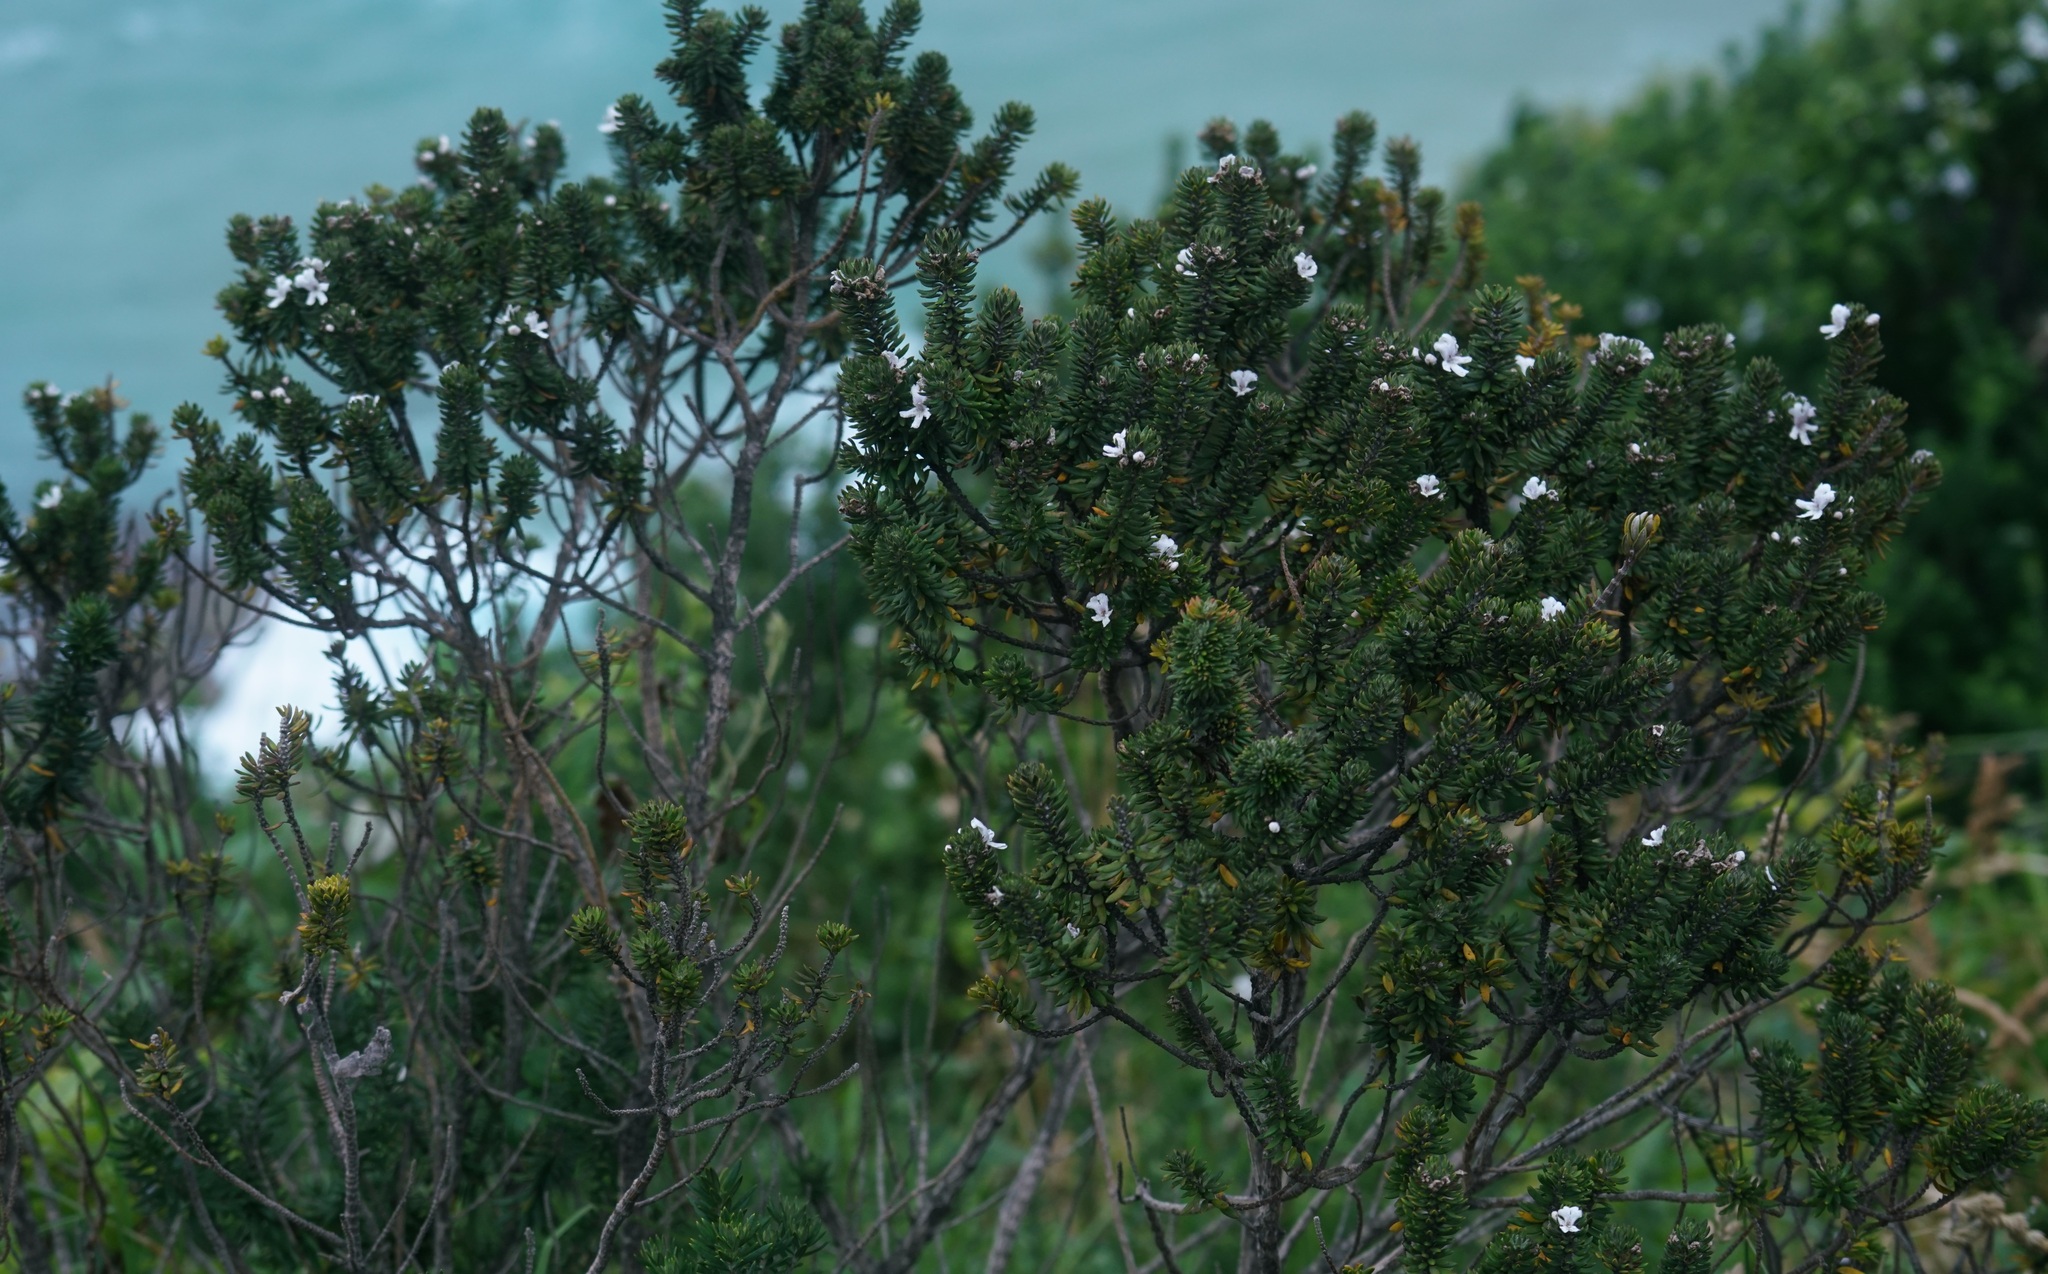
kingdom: Plantae
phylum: Tracheophyta
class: Magnoliopsida
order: Lamiales
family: Lamiaceae
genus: Westringia
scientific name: Westringia fruticosa
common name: Coastal-rosemary
